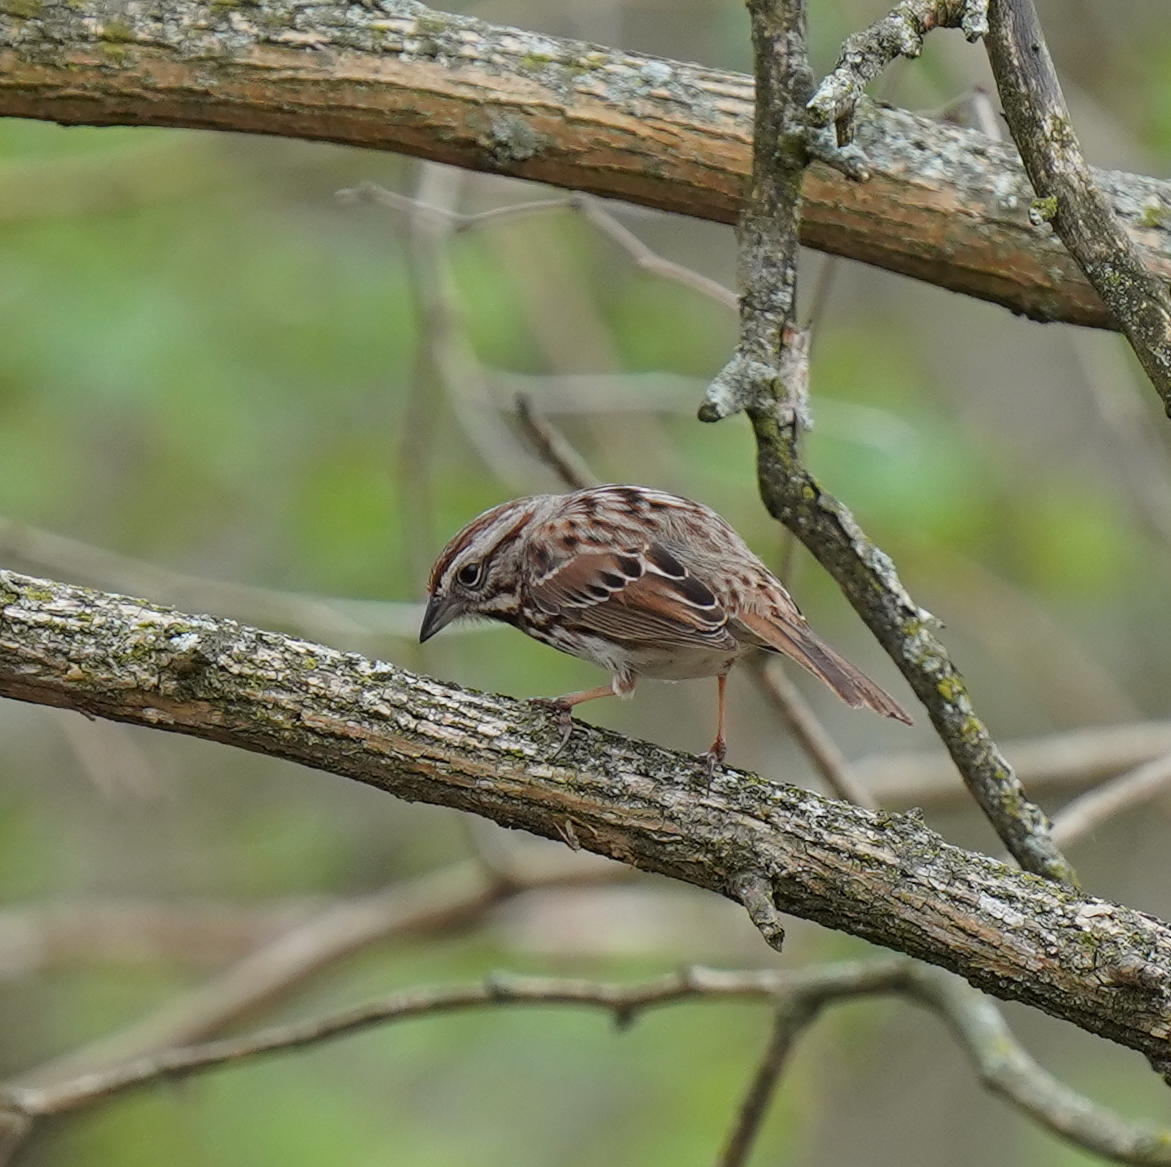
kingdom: Animalia
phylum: Chordata
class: Aves
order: Passeriformes
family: Passerellidae
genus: Melospiza
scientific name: Melospiza melodia
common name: Song sparrow
